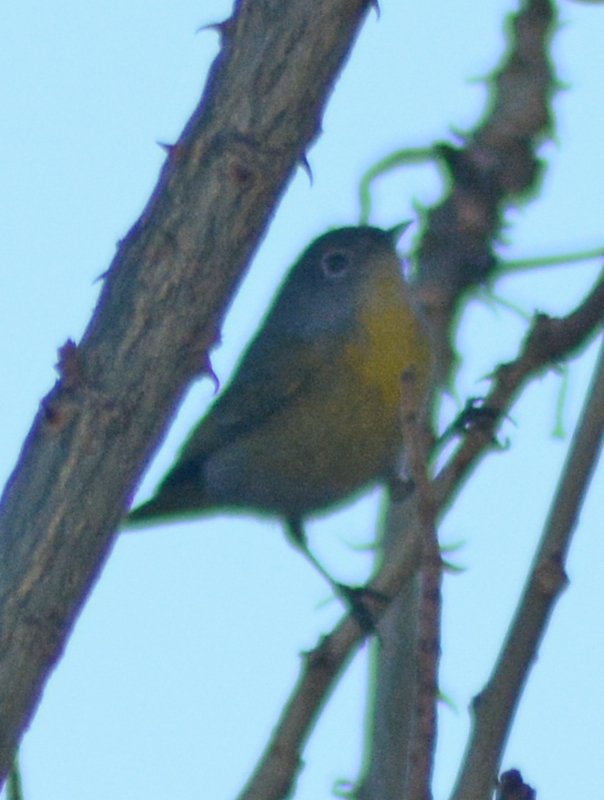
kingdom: Animalia
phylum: Chordata
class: Aves
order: Passeriformes
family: Parulidae
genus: Leiothlypis
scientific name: Leiothlypis ruficapilla
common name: Nashville warbler
